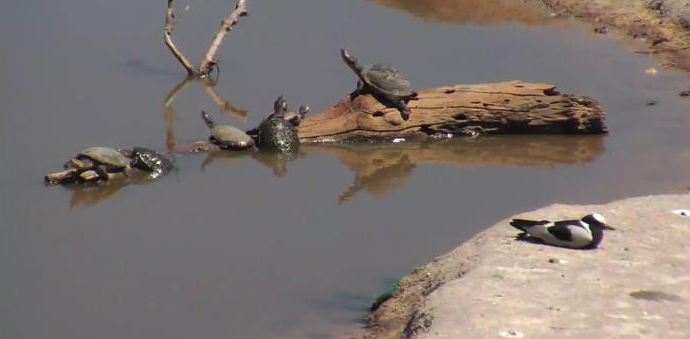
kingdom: Animalia
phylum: Chordata
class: Aves
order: Charadriiformes
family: Charadriidae
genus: Vanellus
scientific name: Vanellus armatus
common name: Blacksmith lapwing
